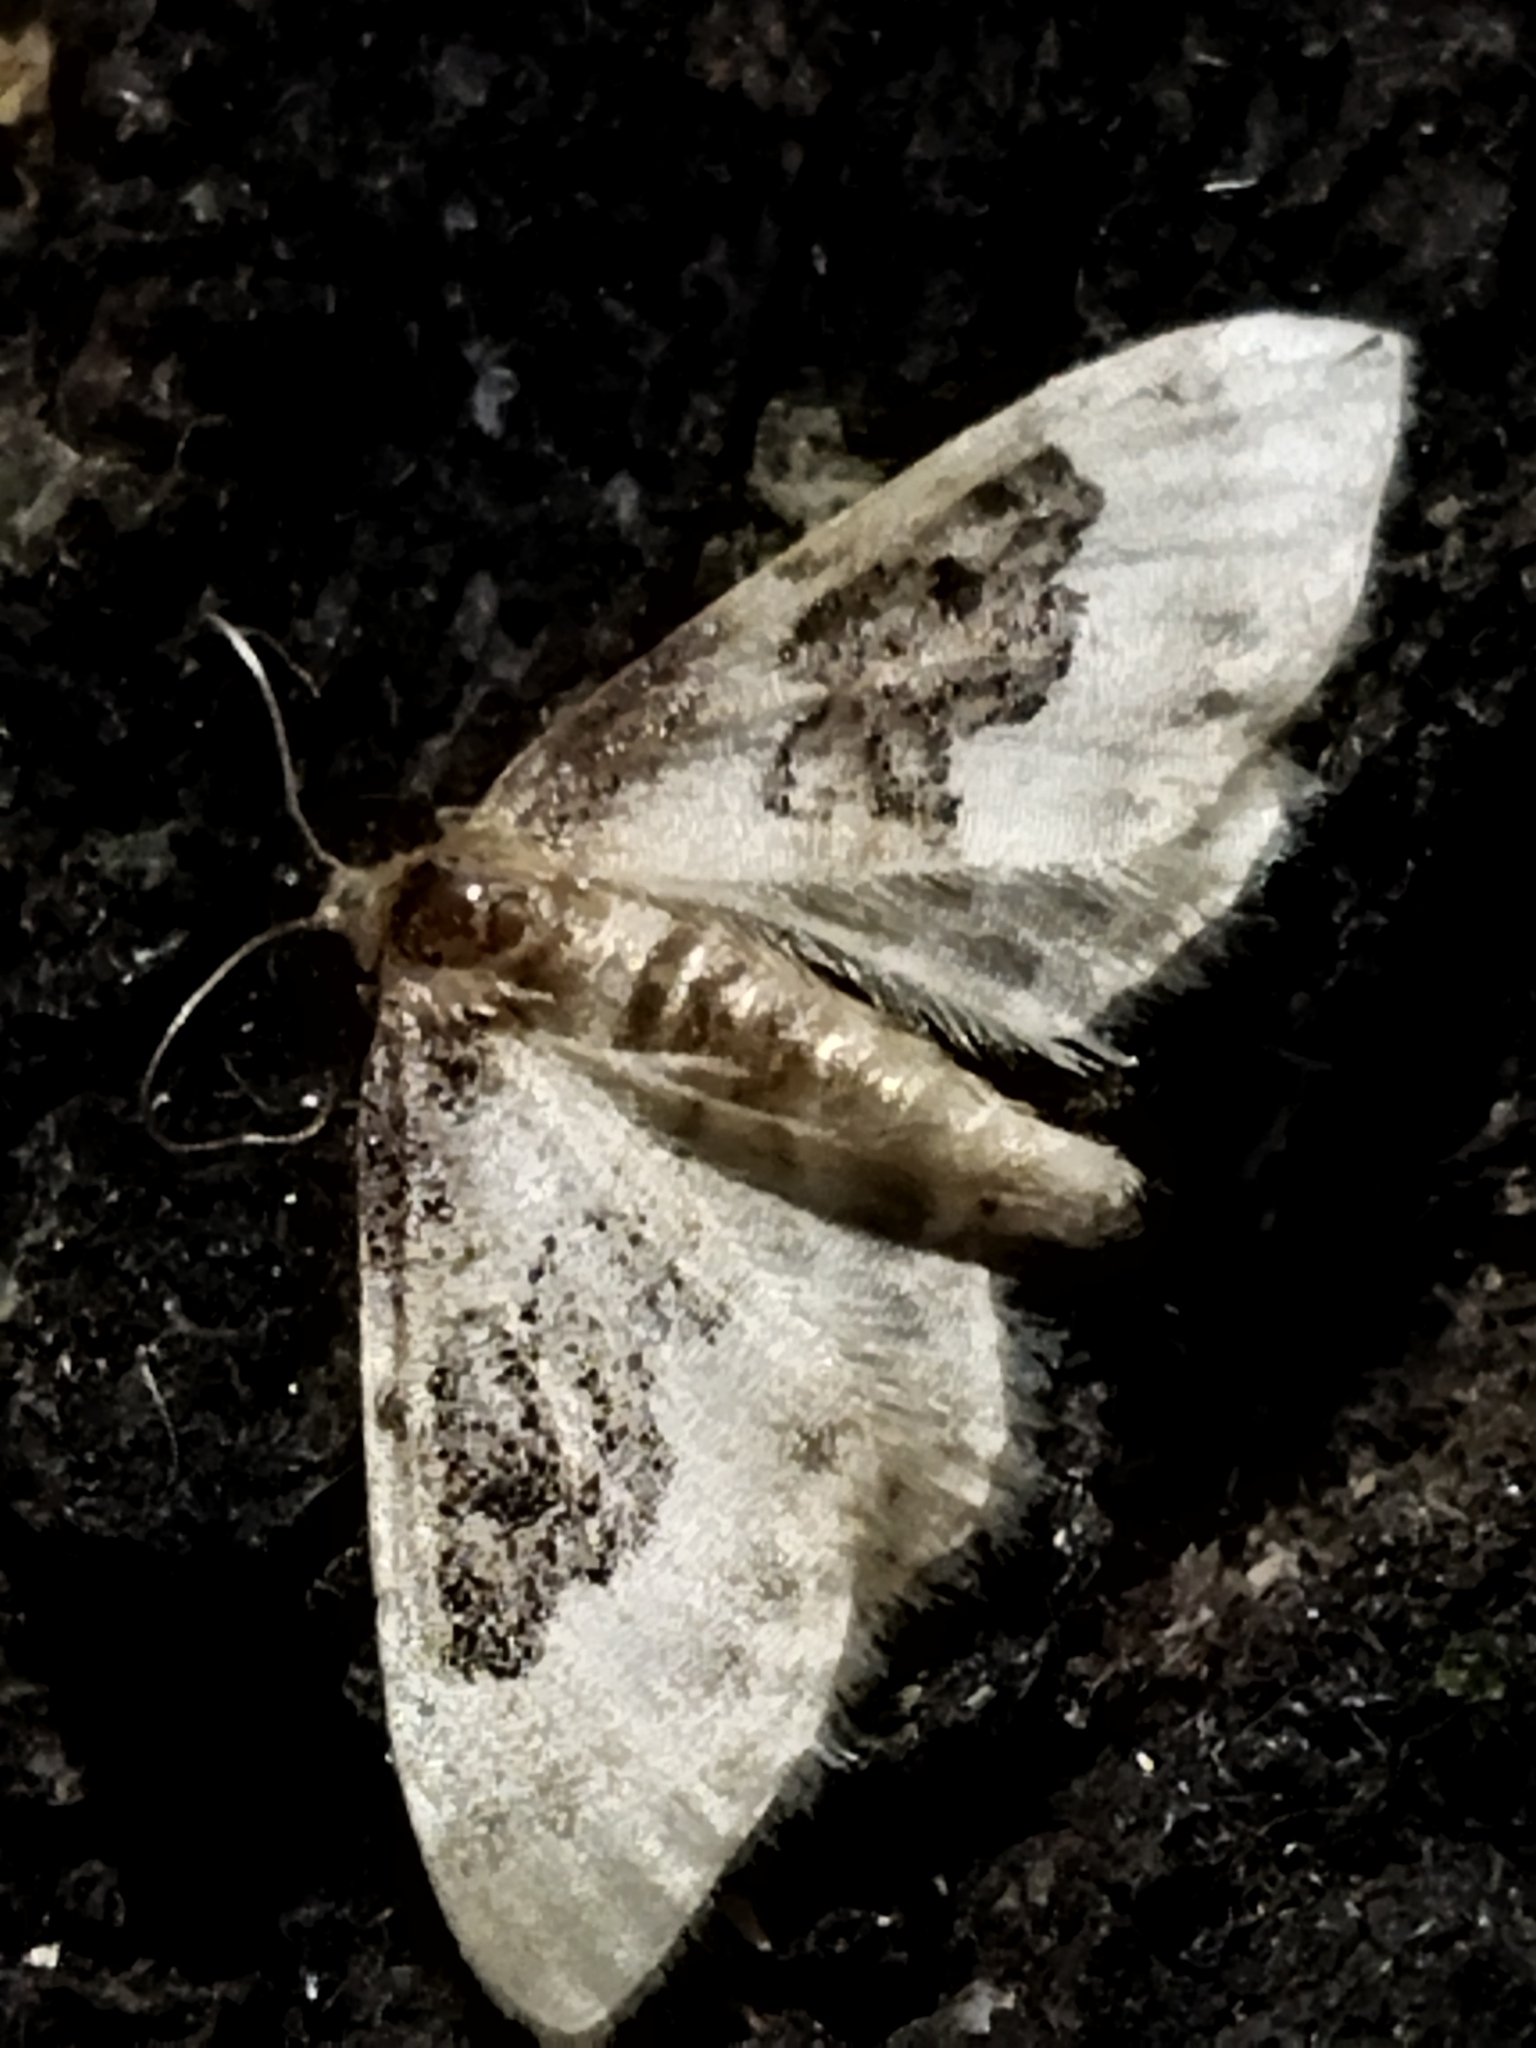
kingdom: Animalia
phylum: Arthropoda
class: Insecta
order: Lepidoptera
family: Geometridae
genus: Idaea
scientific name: Idaea rusticata
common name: Least carpet
